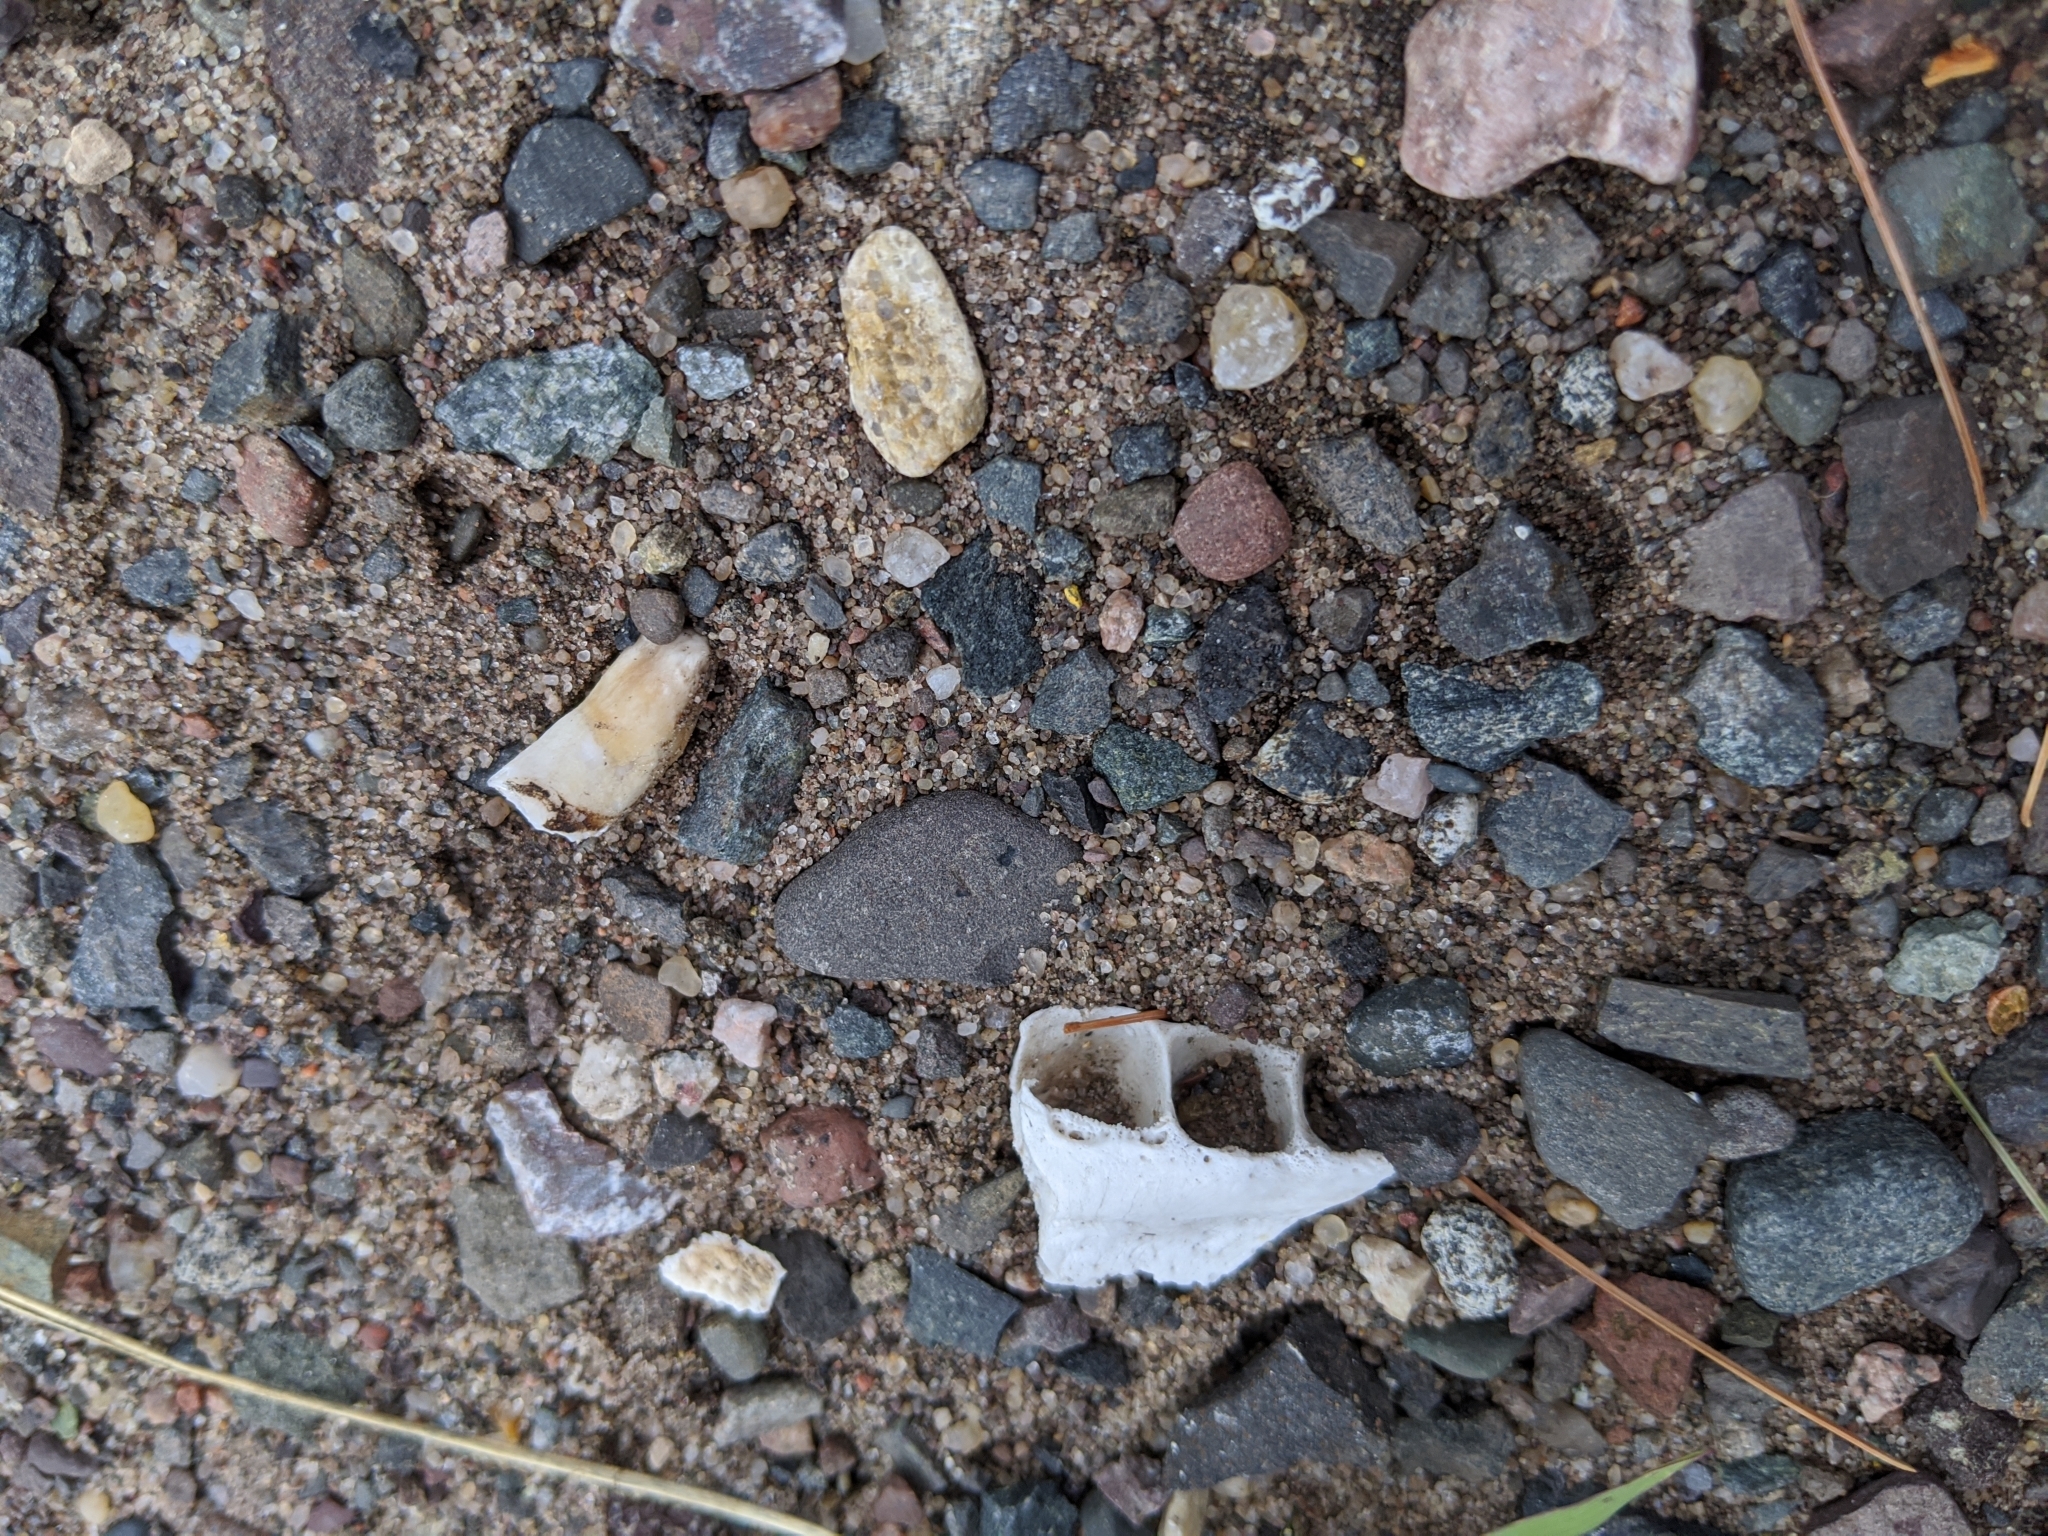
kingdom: Animalia
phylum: Chordata
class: Mammalia
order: Rodentia
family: Castoridae
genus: Castor
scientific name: Castor canadensis
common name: American beaver
